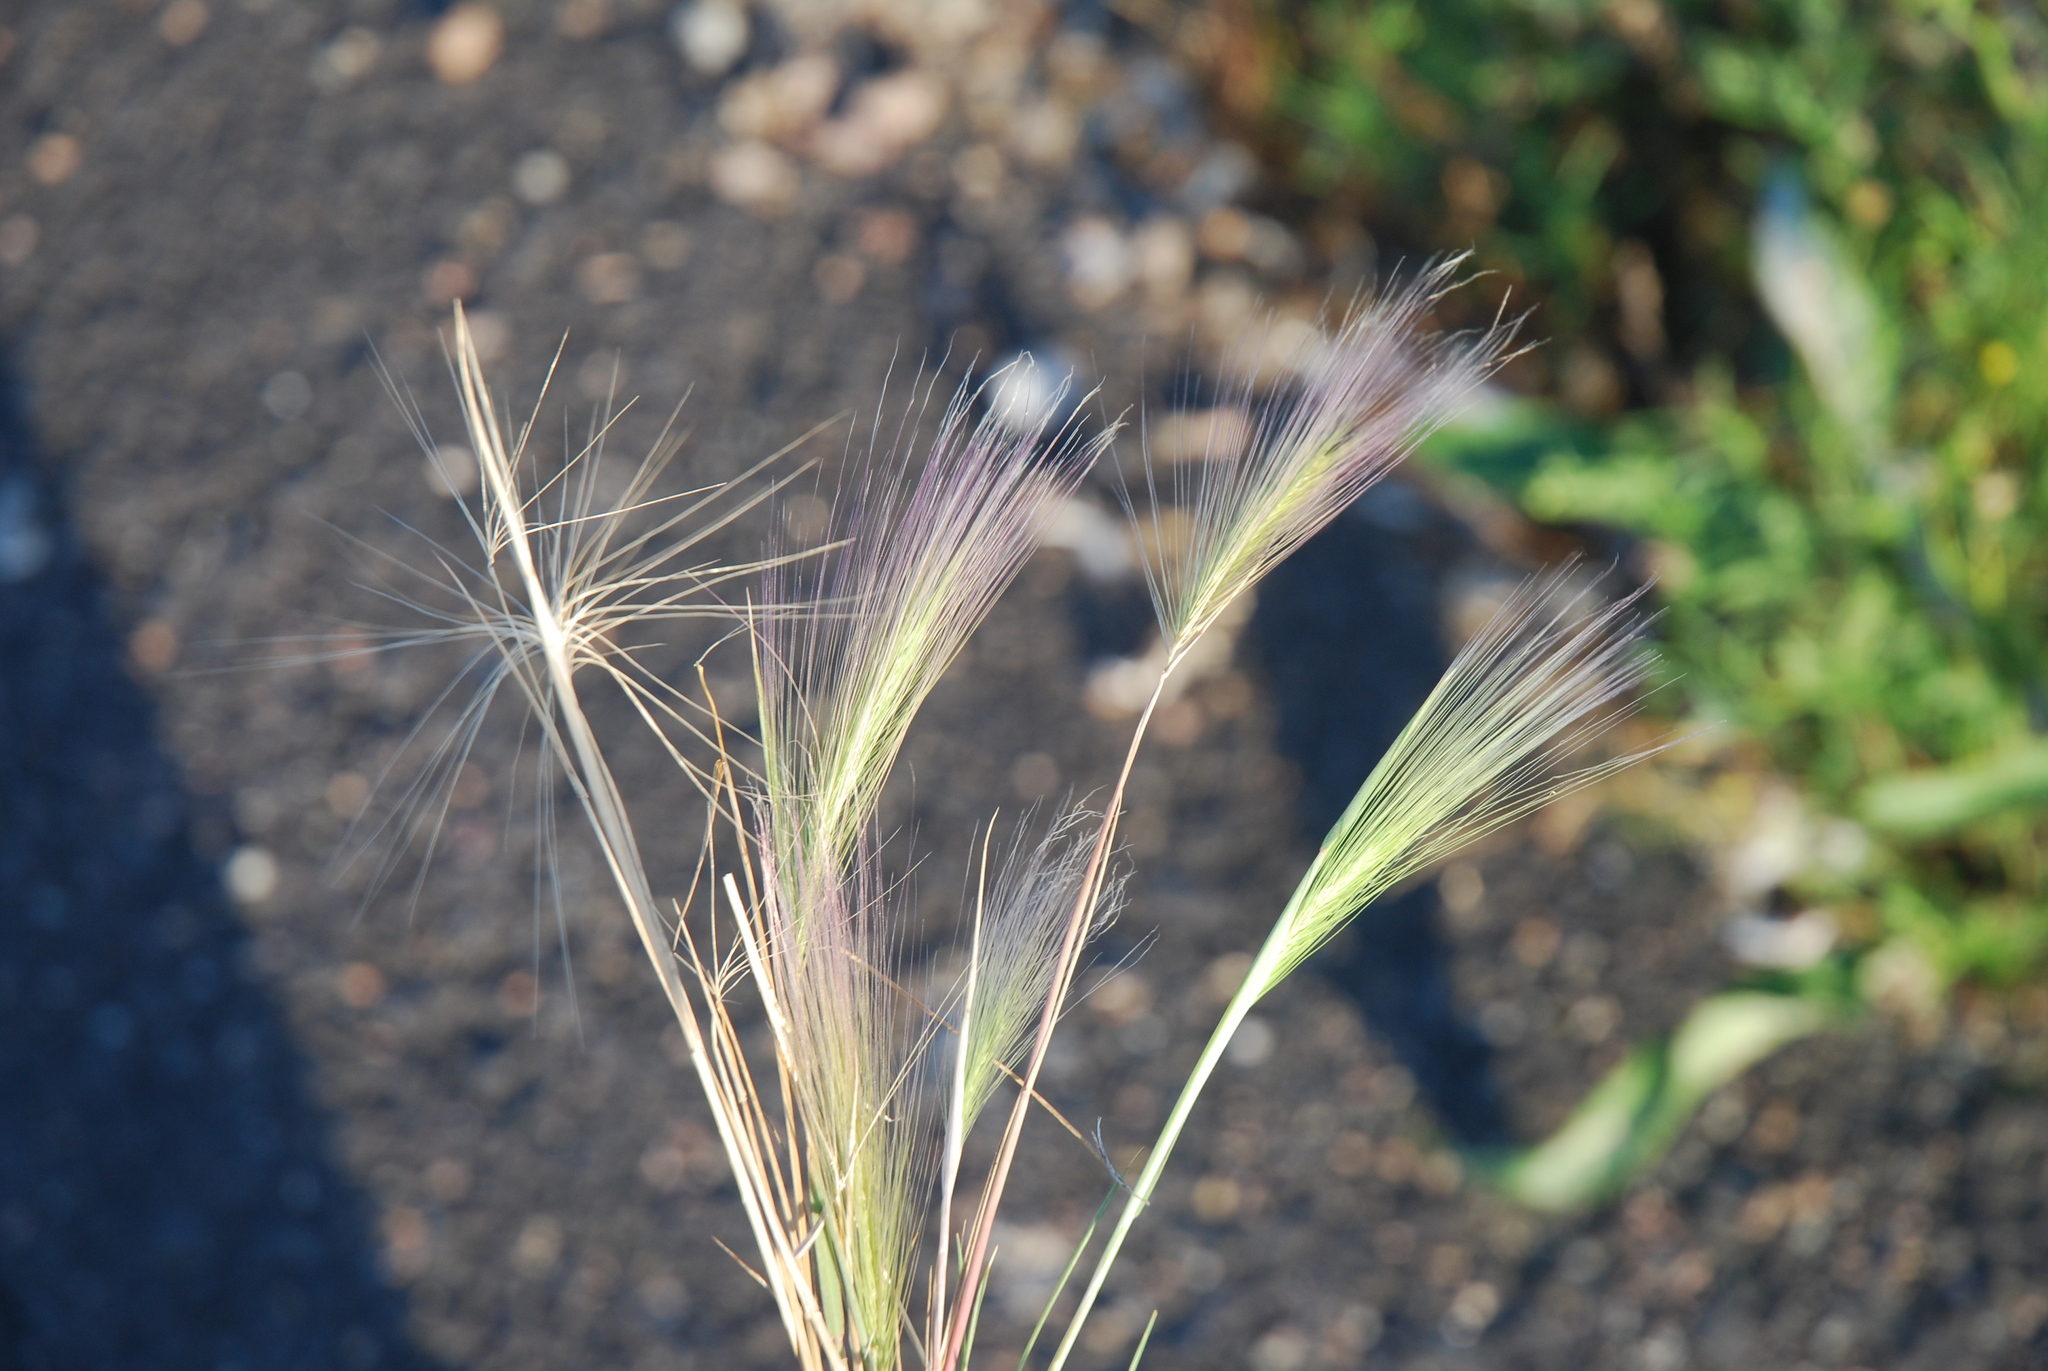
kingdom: Plantae
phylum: Tracheophyta
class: Liliopsida
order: Poales
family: Poaceae
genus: Hordeum
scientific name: Hordeum jubatum
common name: Foxtail barley
